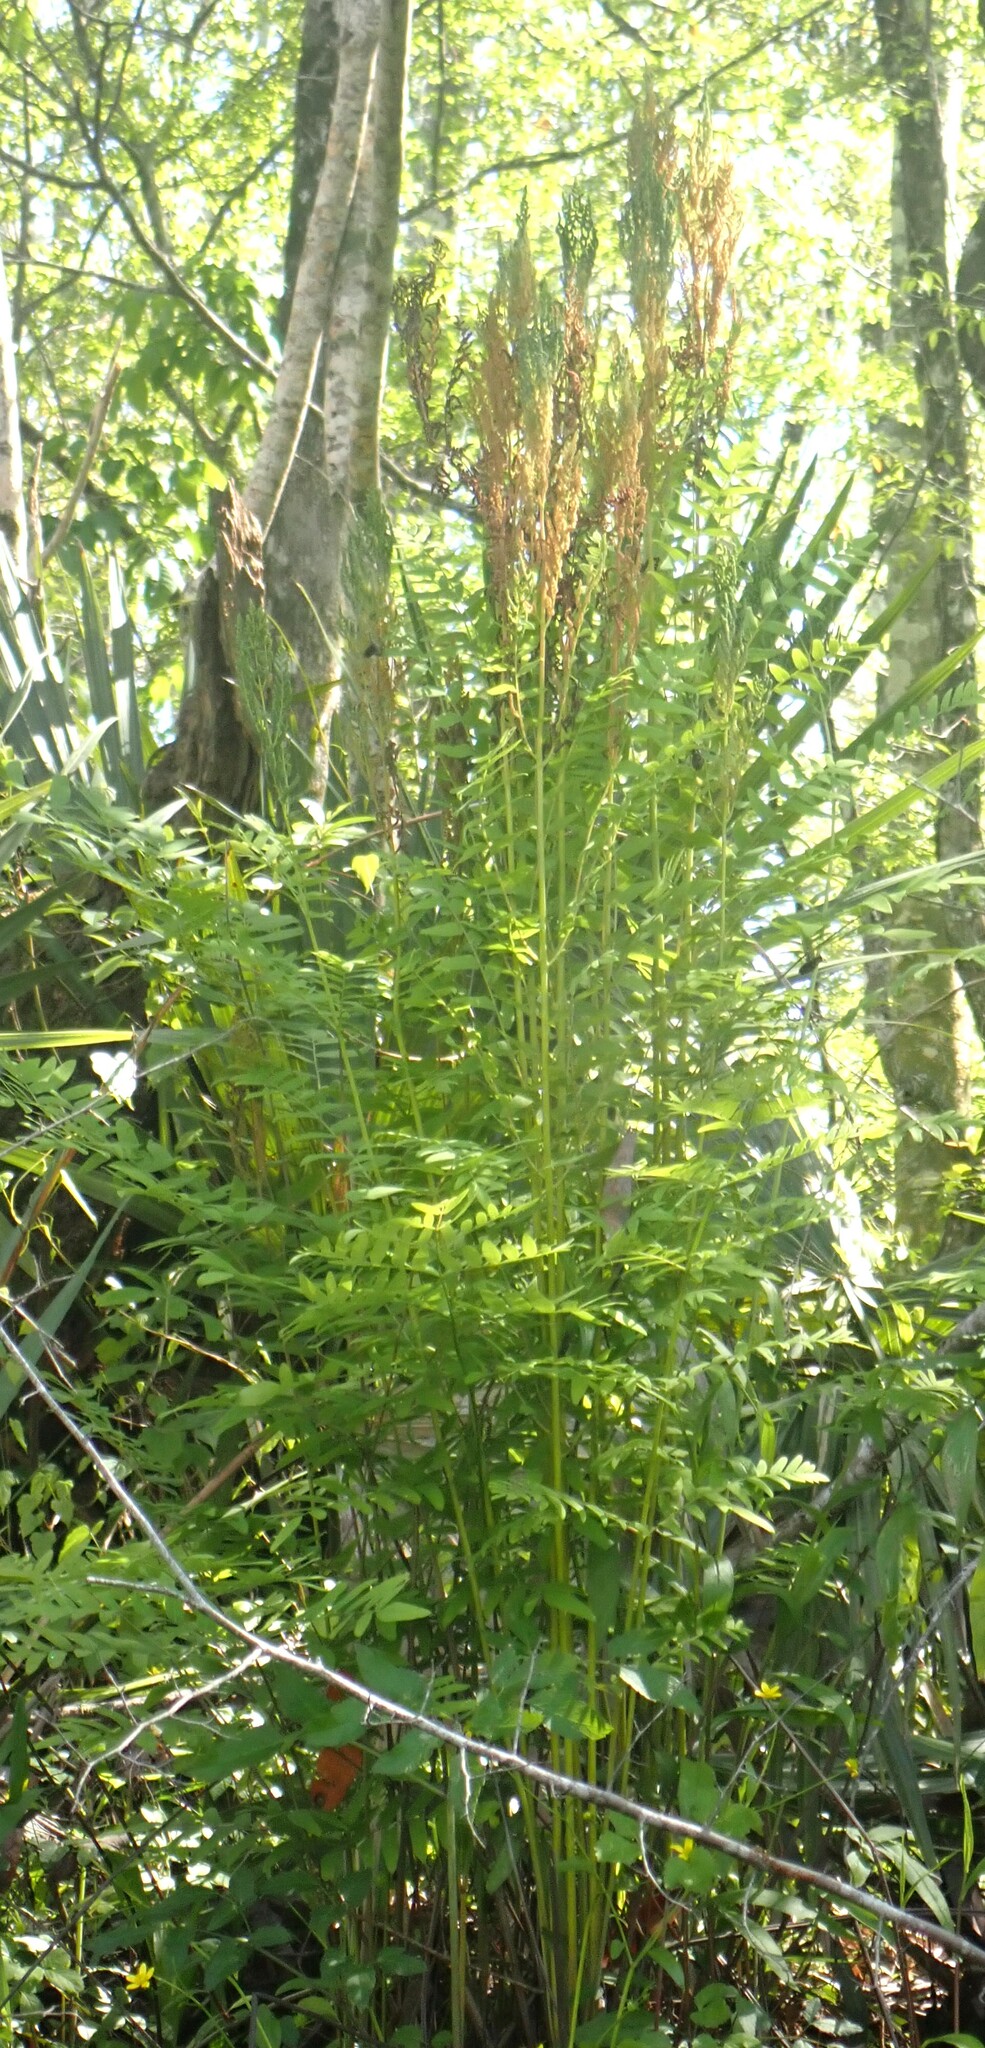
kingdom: Plantae
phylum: Tracheophyta
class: Polypodiopsida
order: Osmundales
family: Osmundaceae
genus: Osmunda
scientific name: Osmunda spectabilis
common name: American royal fern
